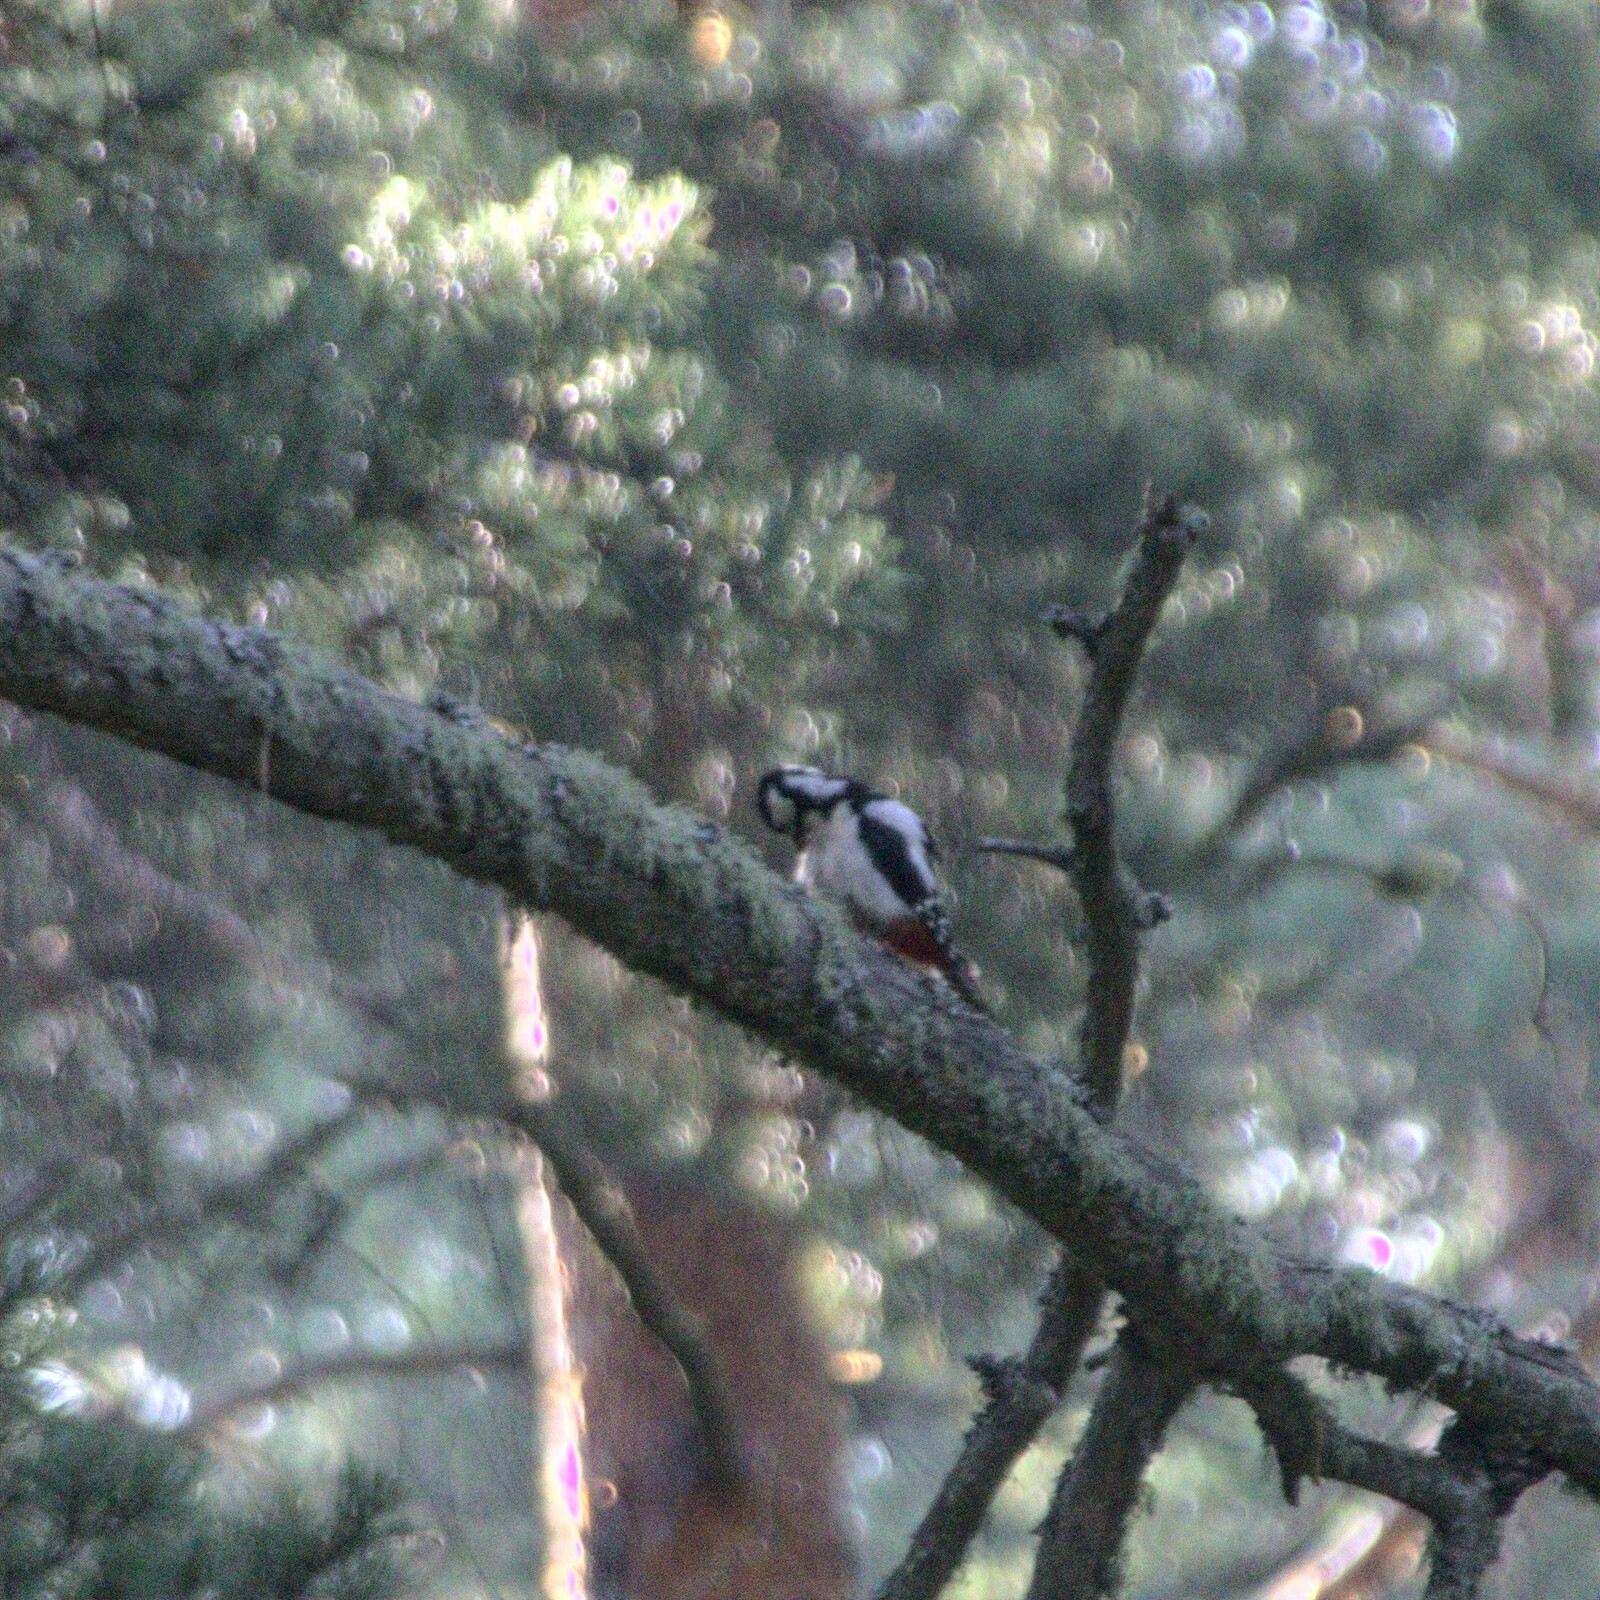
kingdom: Animalia
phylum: Chordata
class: Aves
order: Piciformes
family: Picidae
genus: Dendrocopos
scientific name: Dendrocopos major
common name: Great spotted woodpecker
